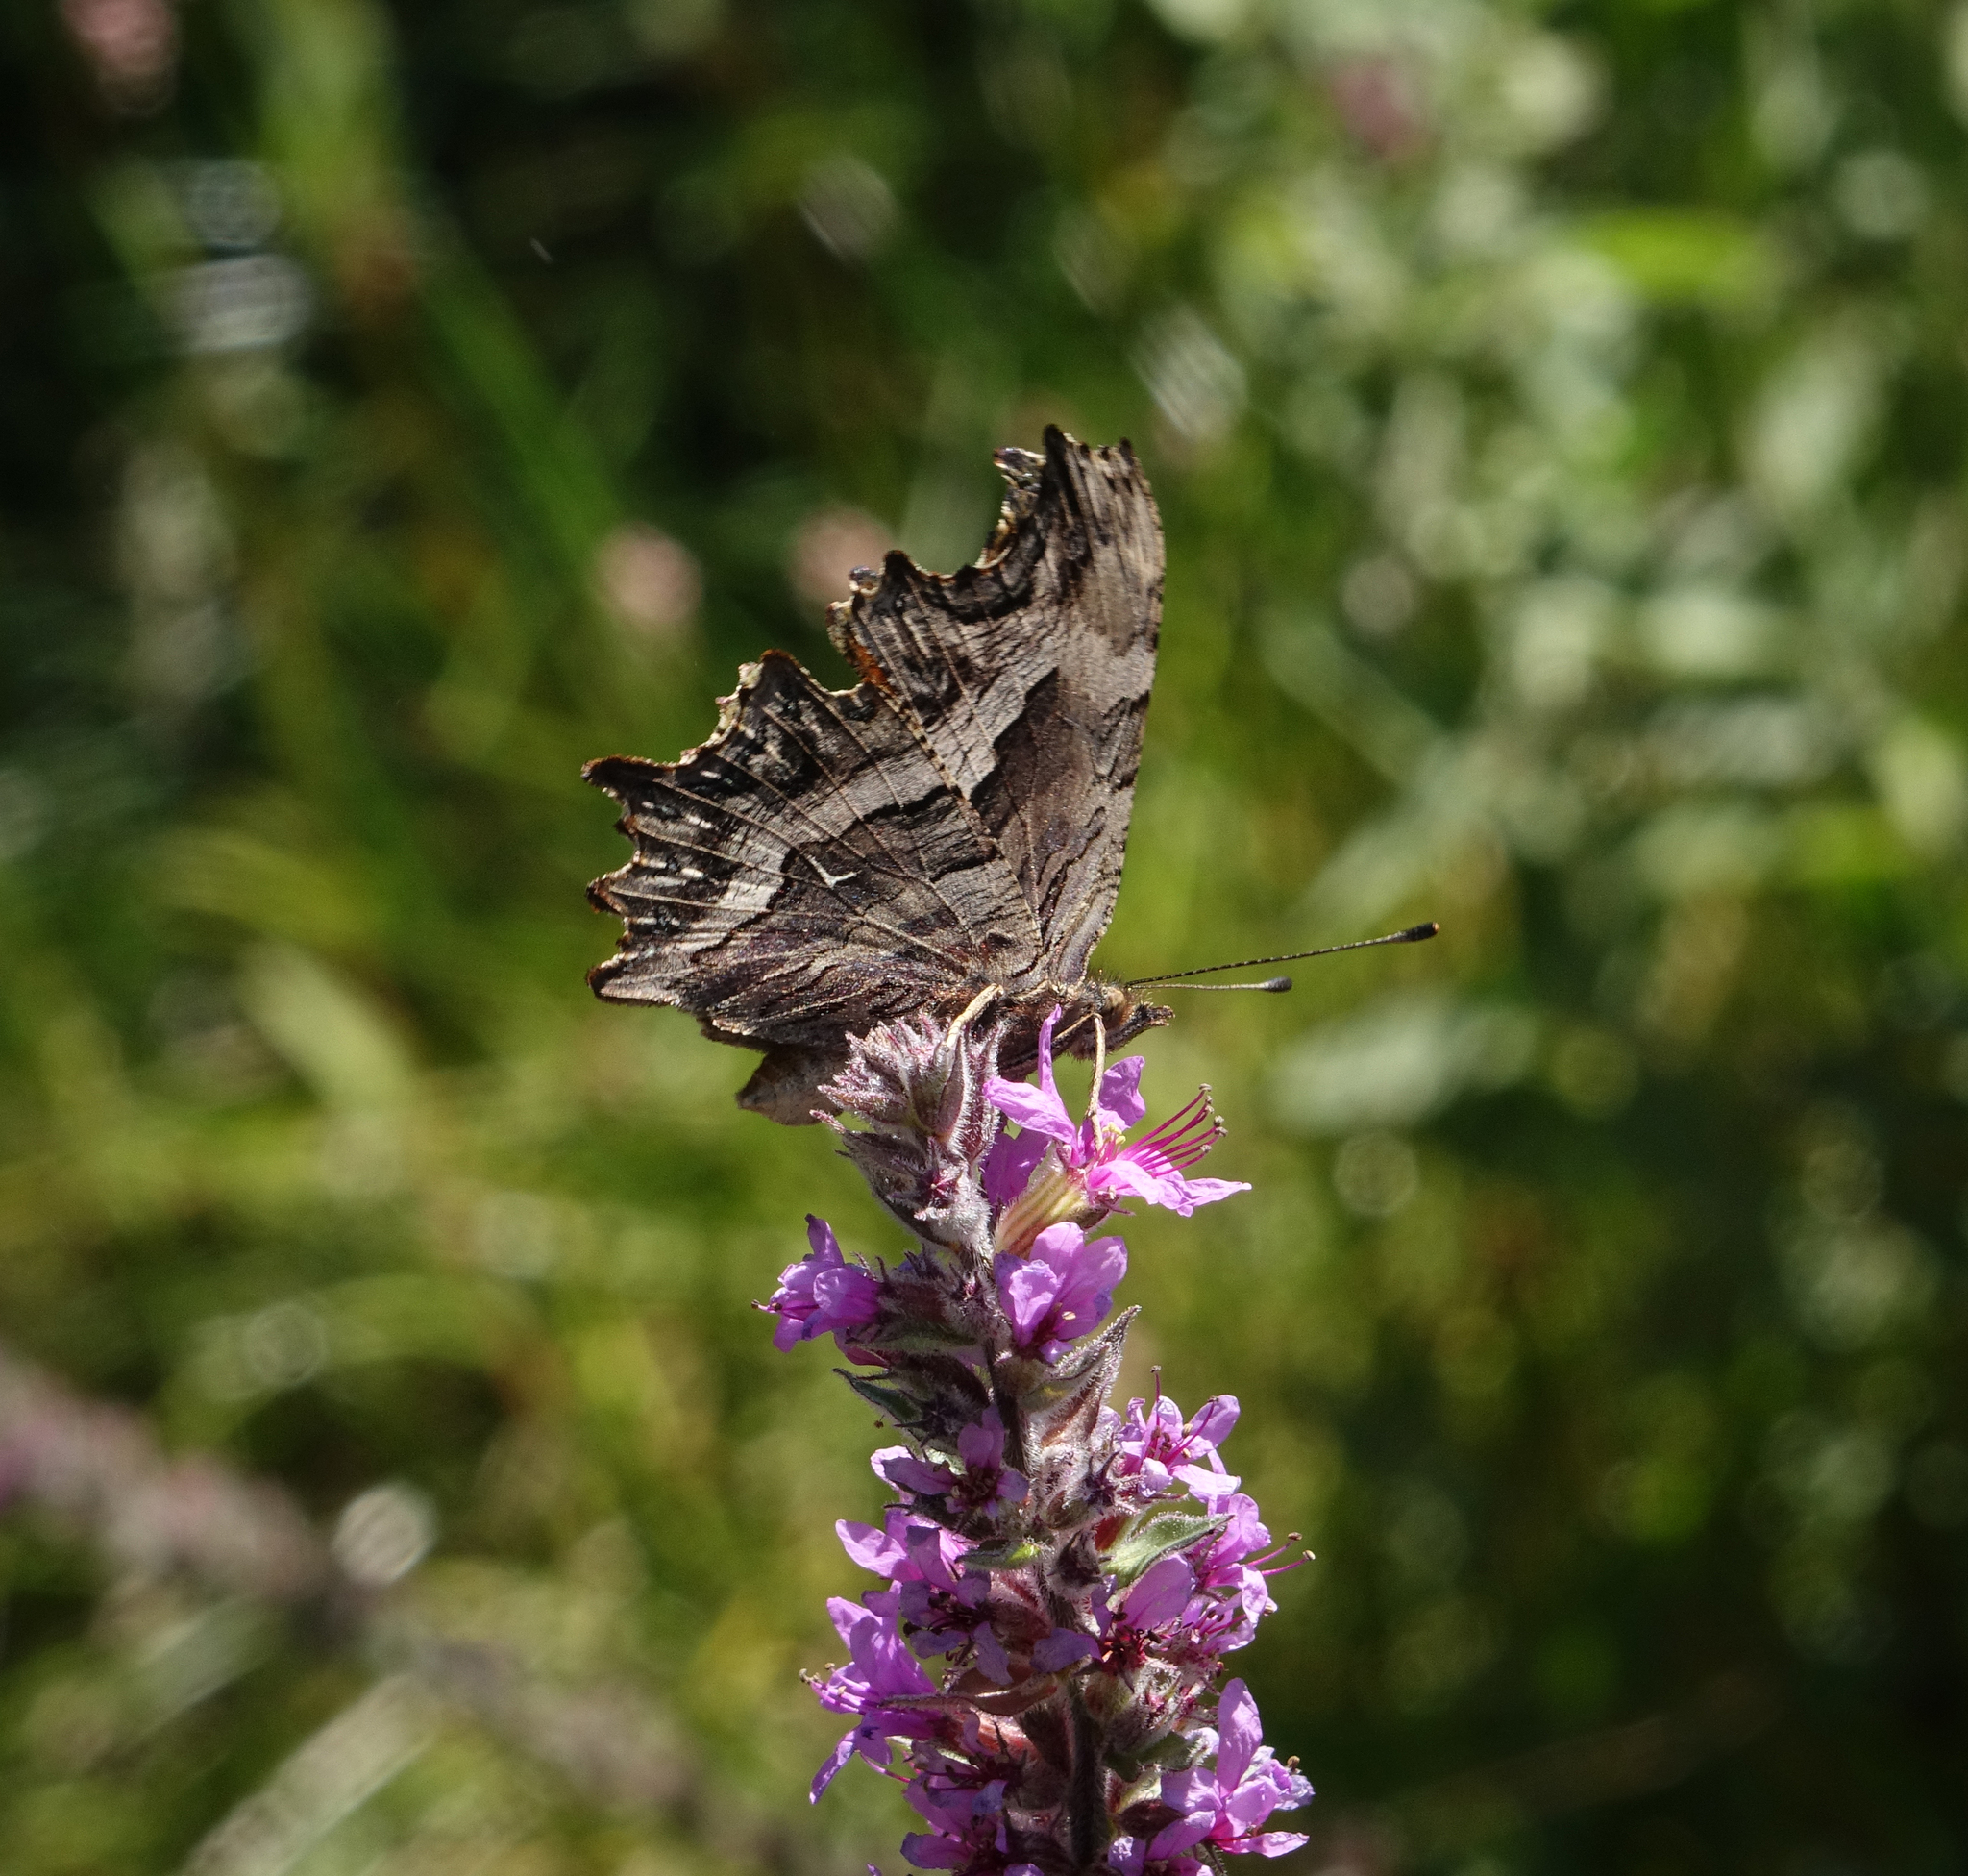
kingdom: Animalia
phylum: Arthropoda
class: Insecta
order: Lepidoptera
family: Nymphalidae
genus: Polygonia
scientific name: Polygonia egea
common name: Southern comma
